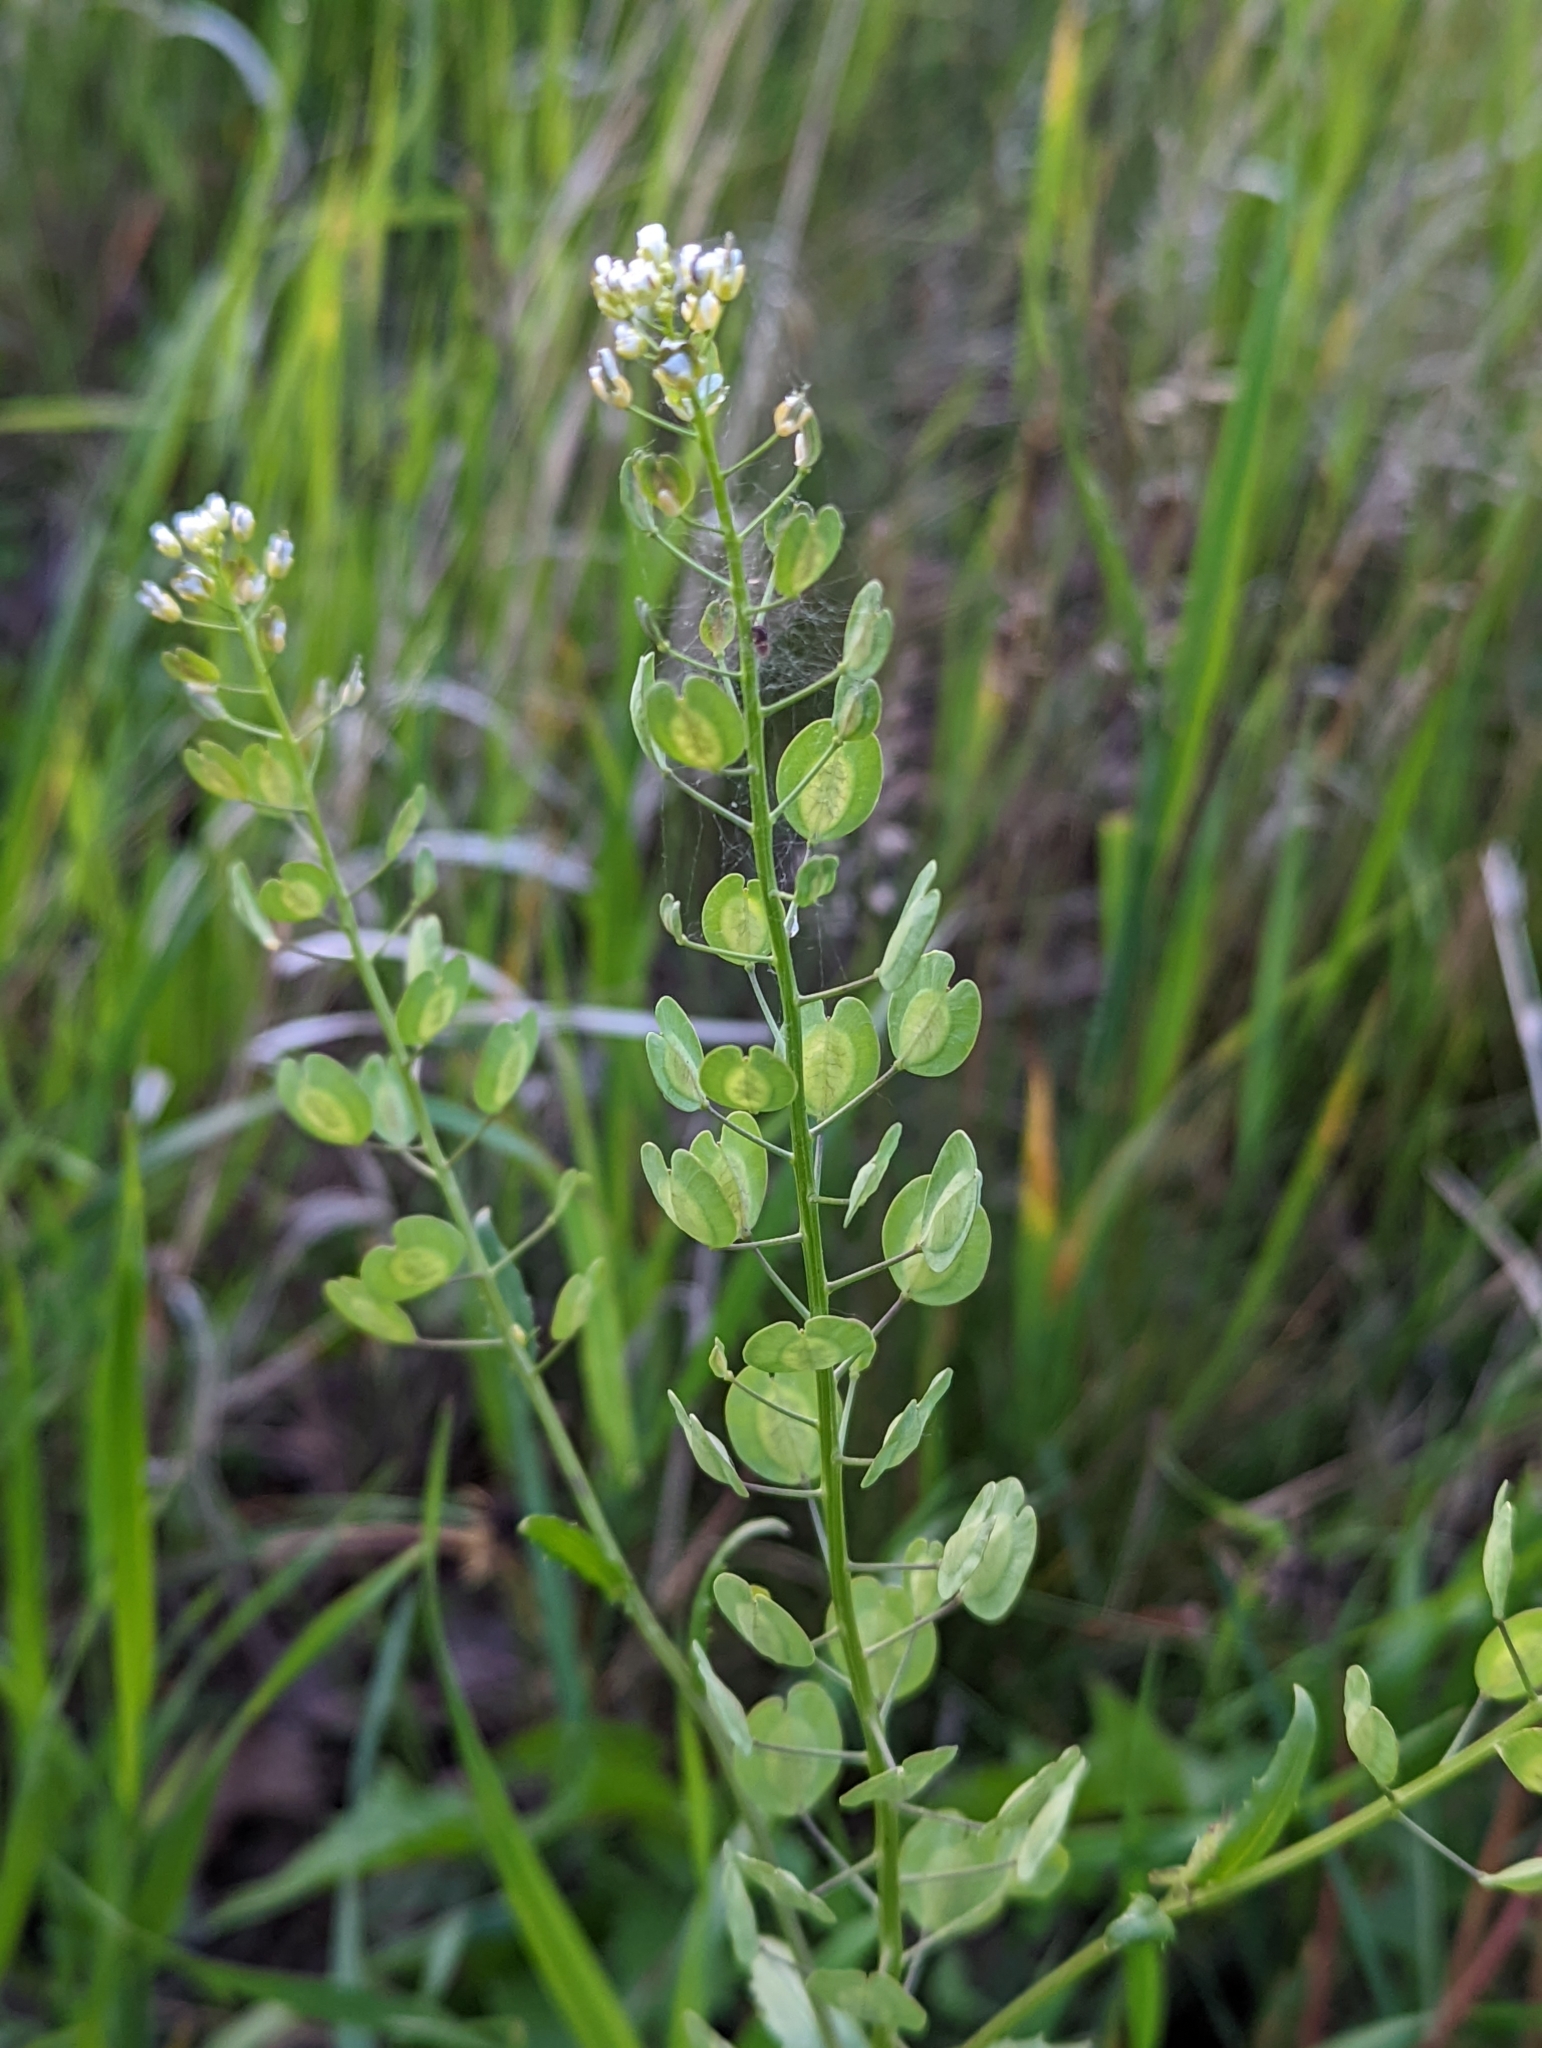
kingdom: Plantae
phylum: Tracheophyta
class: Magnoliopsida
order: Brassicales
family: Brassicaceae
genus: Thlaspi
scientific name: Thlaspi arvense
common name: Field pennycress
